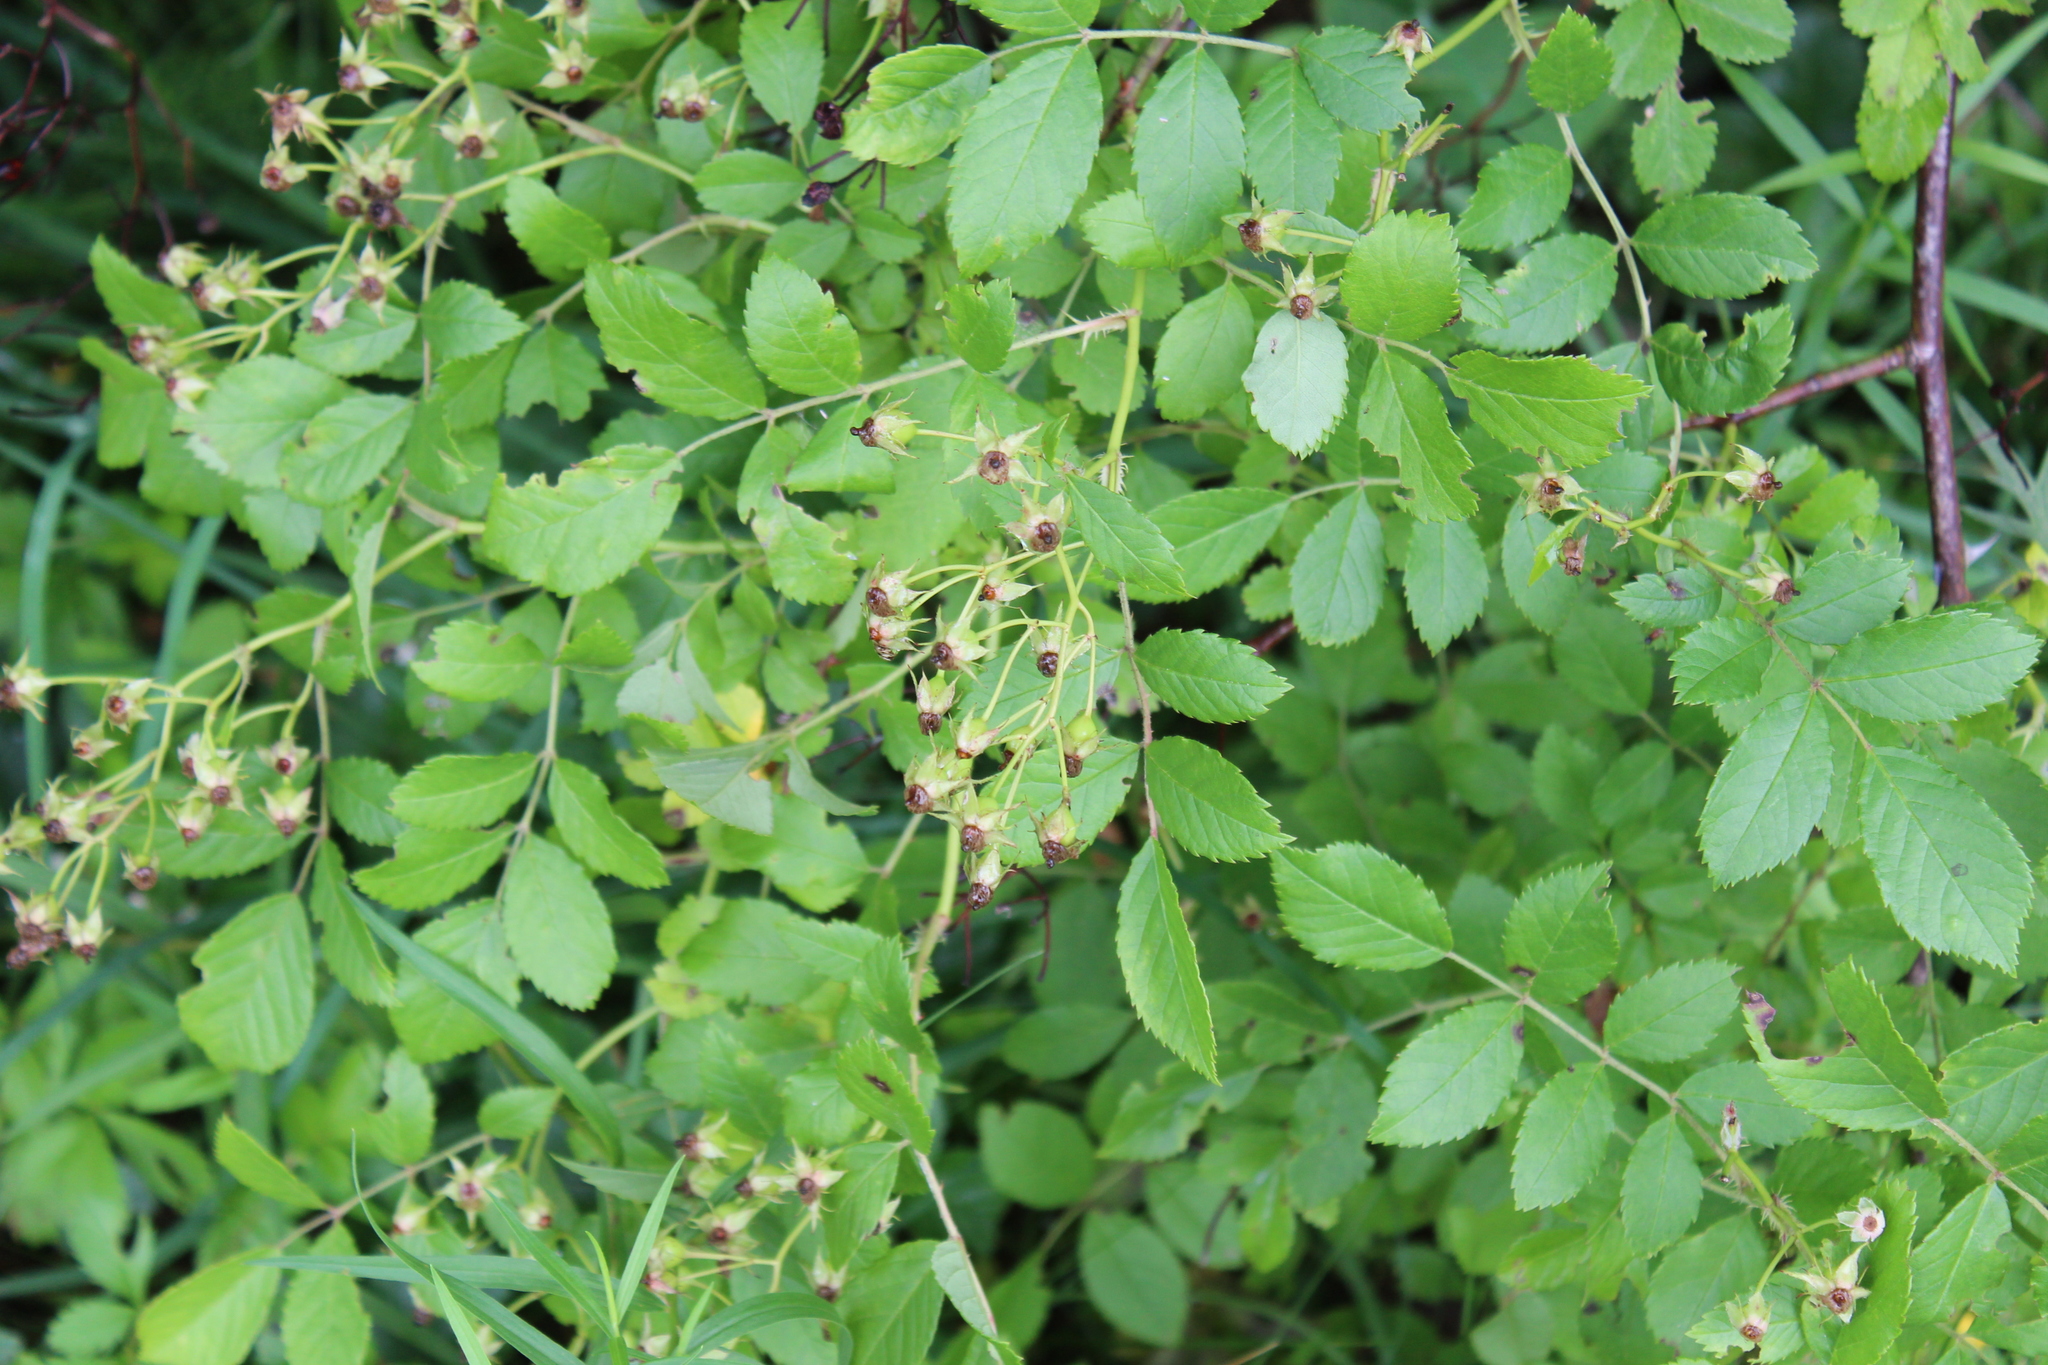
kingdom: Plantae
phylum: Tracheophyta
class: Magnoliopsida
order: Rosales
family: Rosaceae
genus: Rosa
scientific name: Rosa multiflora
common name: Multiflora rose
